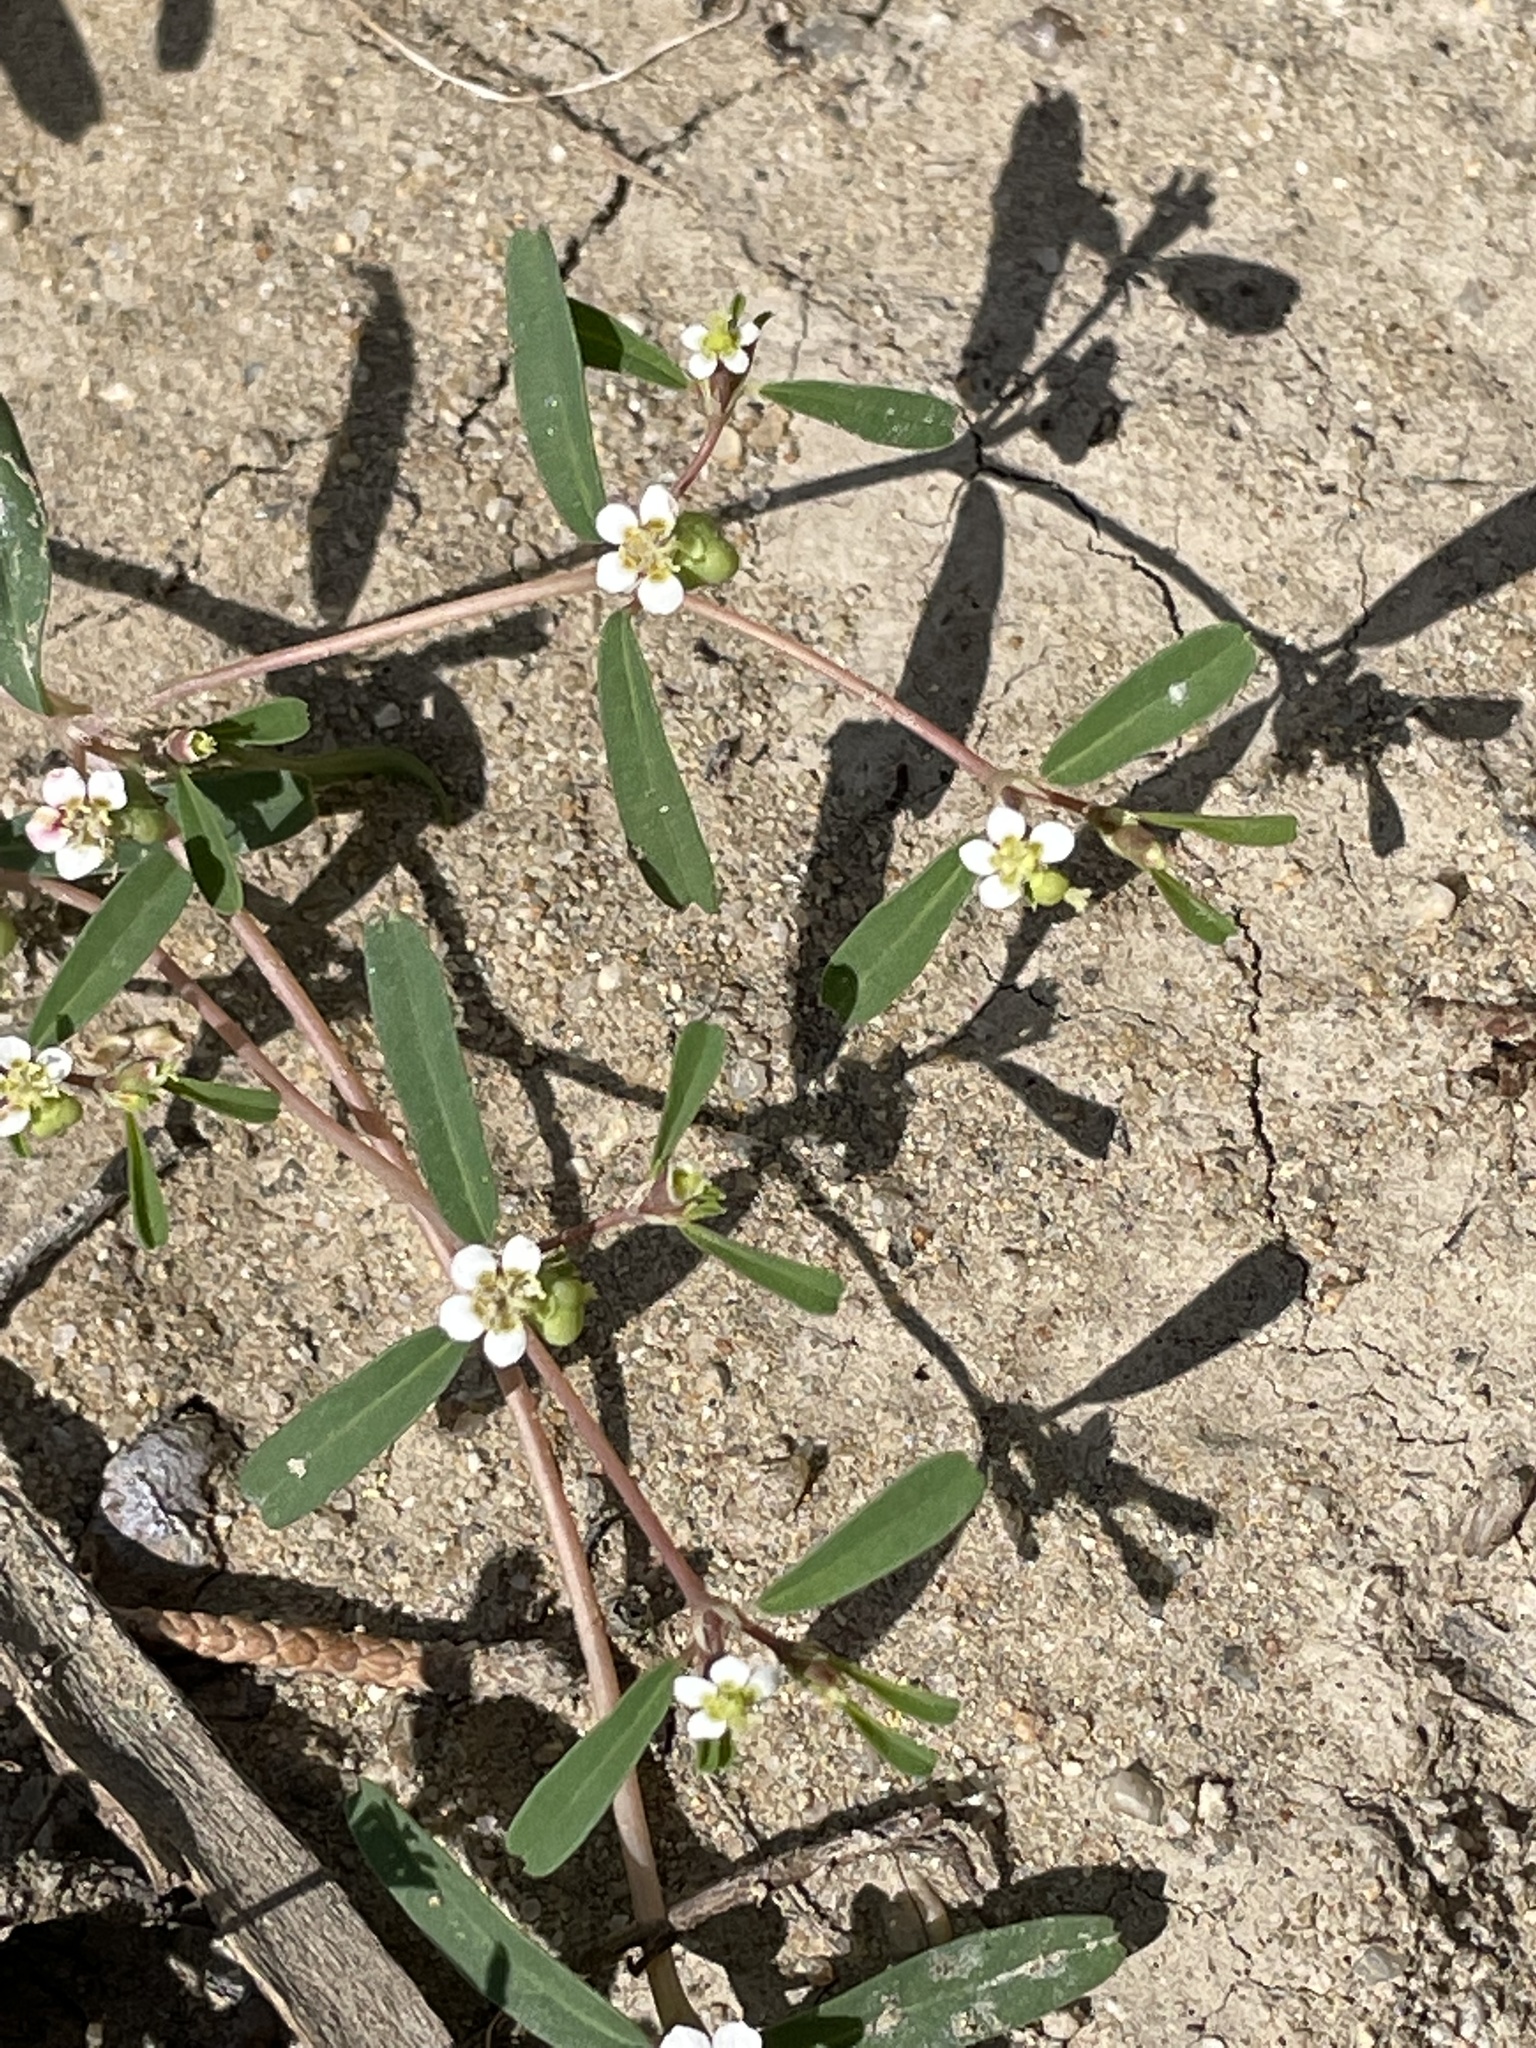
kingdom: Plantae
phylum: Tracheophyta
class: Magnoliopsida
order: Malpighiales
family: Euphorbiaceae
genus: Euphorbia
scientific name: Euphorbia missurica
